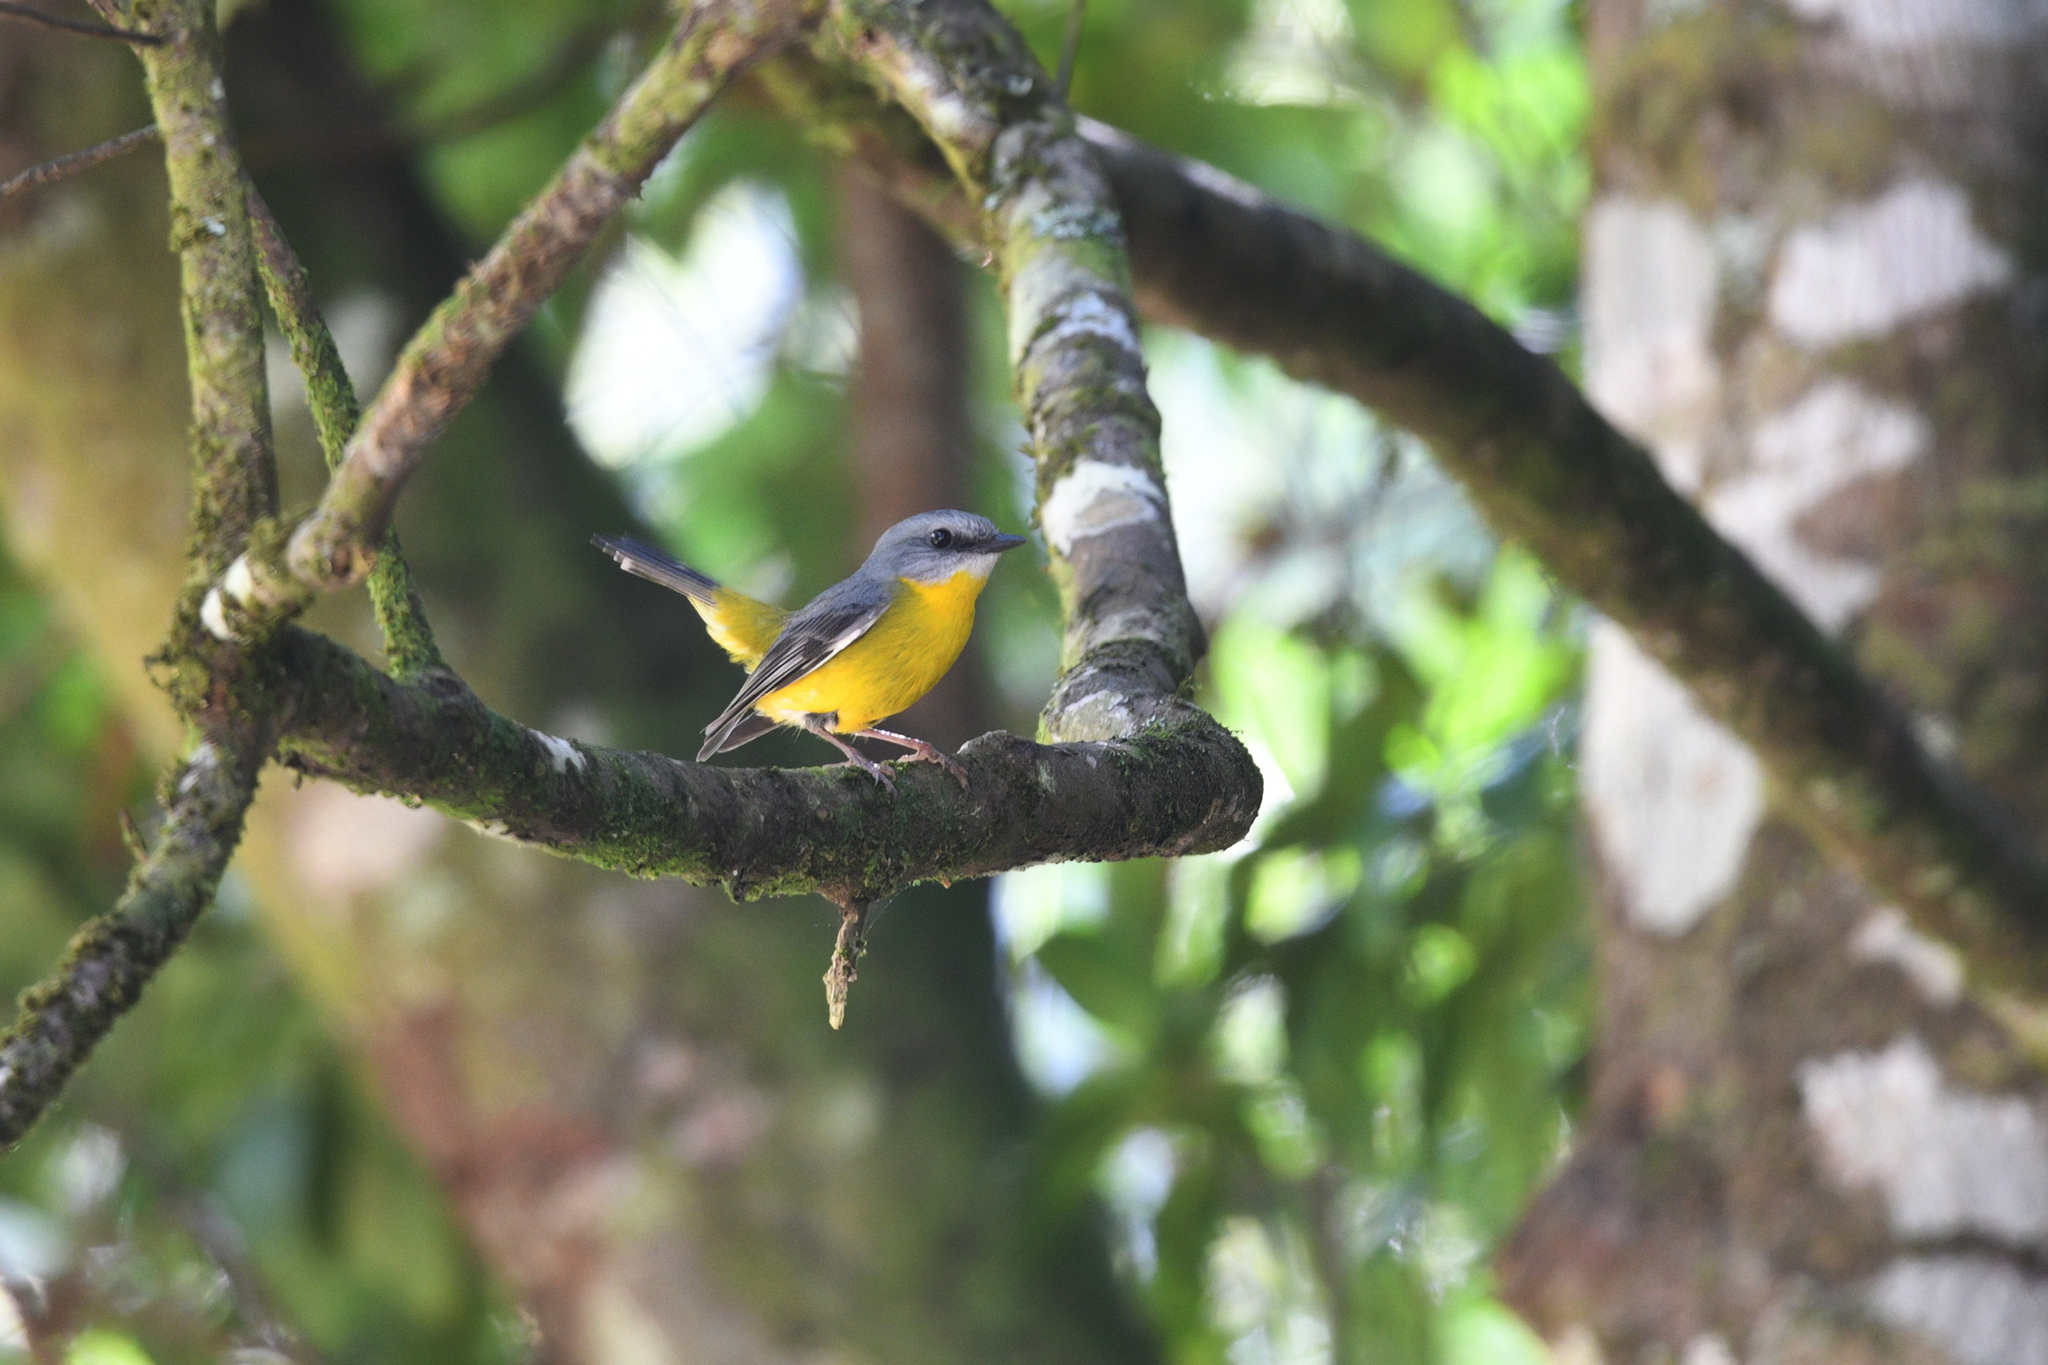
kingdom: Animalia
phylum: Chordata
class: Aves
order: Passeriformes
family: Petroicidae
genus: Eopsaltria
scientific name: Eopsaltria australis
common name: Eastern yellow robin
